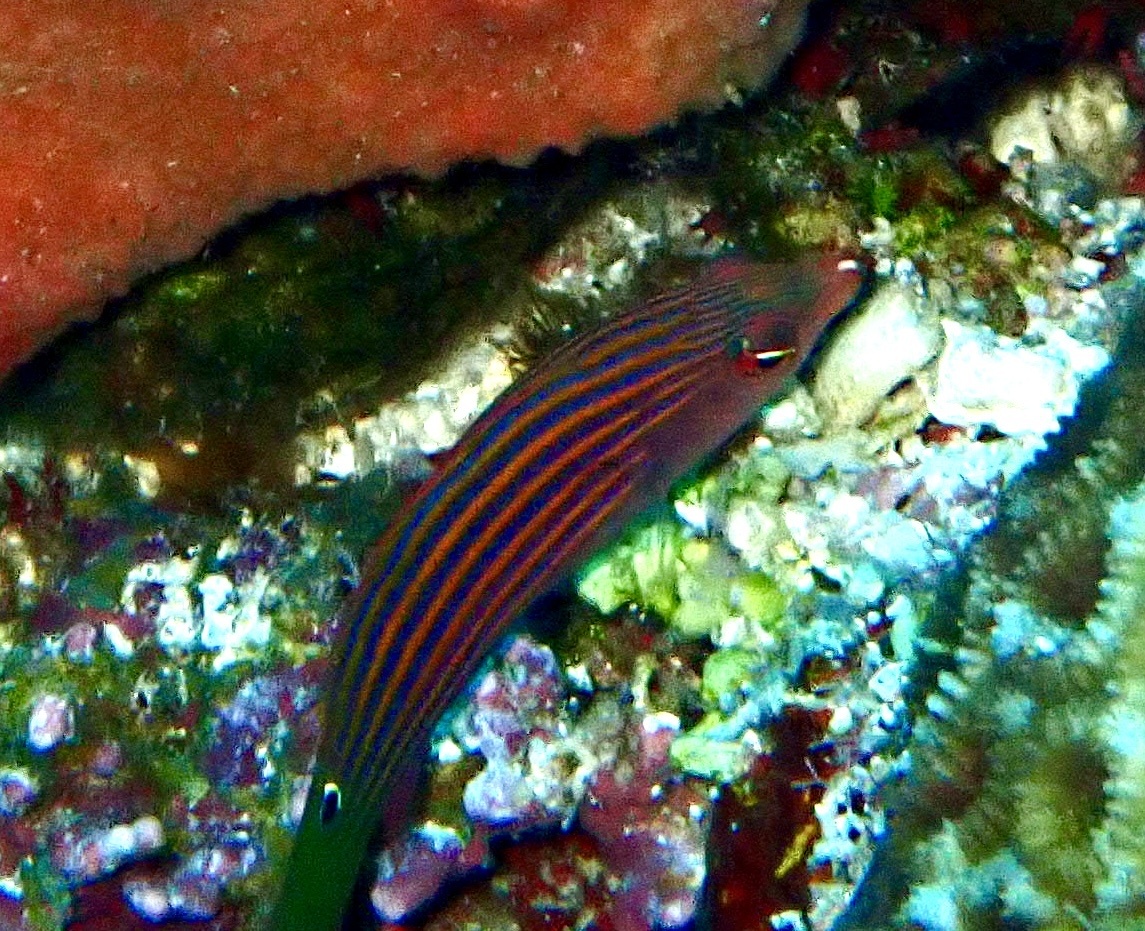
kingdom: Animalia
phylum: Chordata
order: Perciformes
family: Labridae
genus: Pseudocheilinus
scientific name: Pseudocheilinus hexataenia
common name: Sixline wrasse
